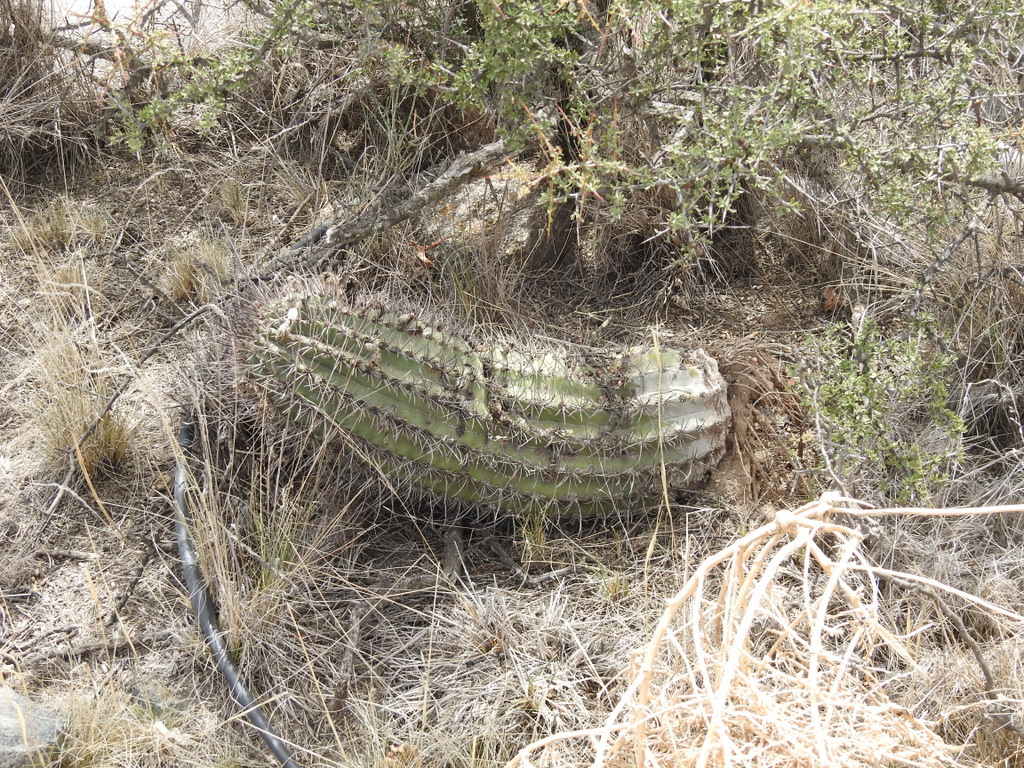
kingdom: Plantae
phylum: Tracheophyta
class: Magnoliopsida
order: Caryophyllales
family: Cactaceae
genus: Acanthocalycium
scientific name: Acanthocalycium leucanthum
